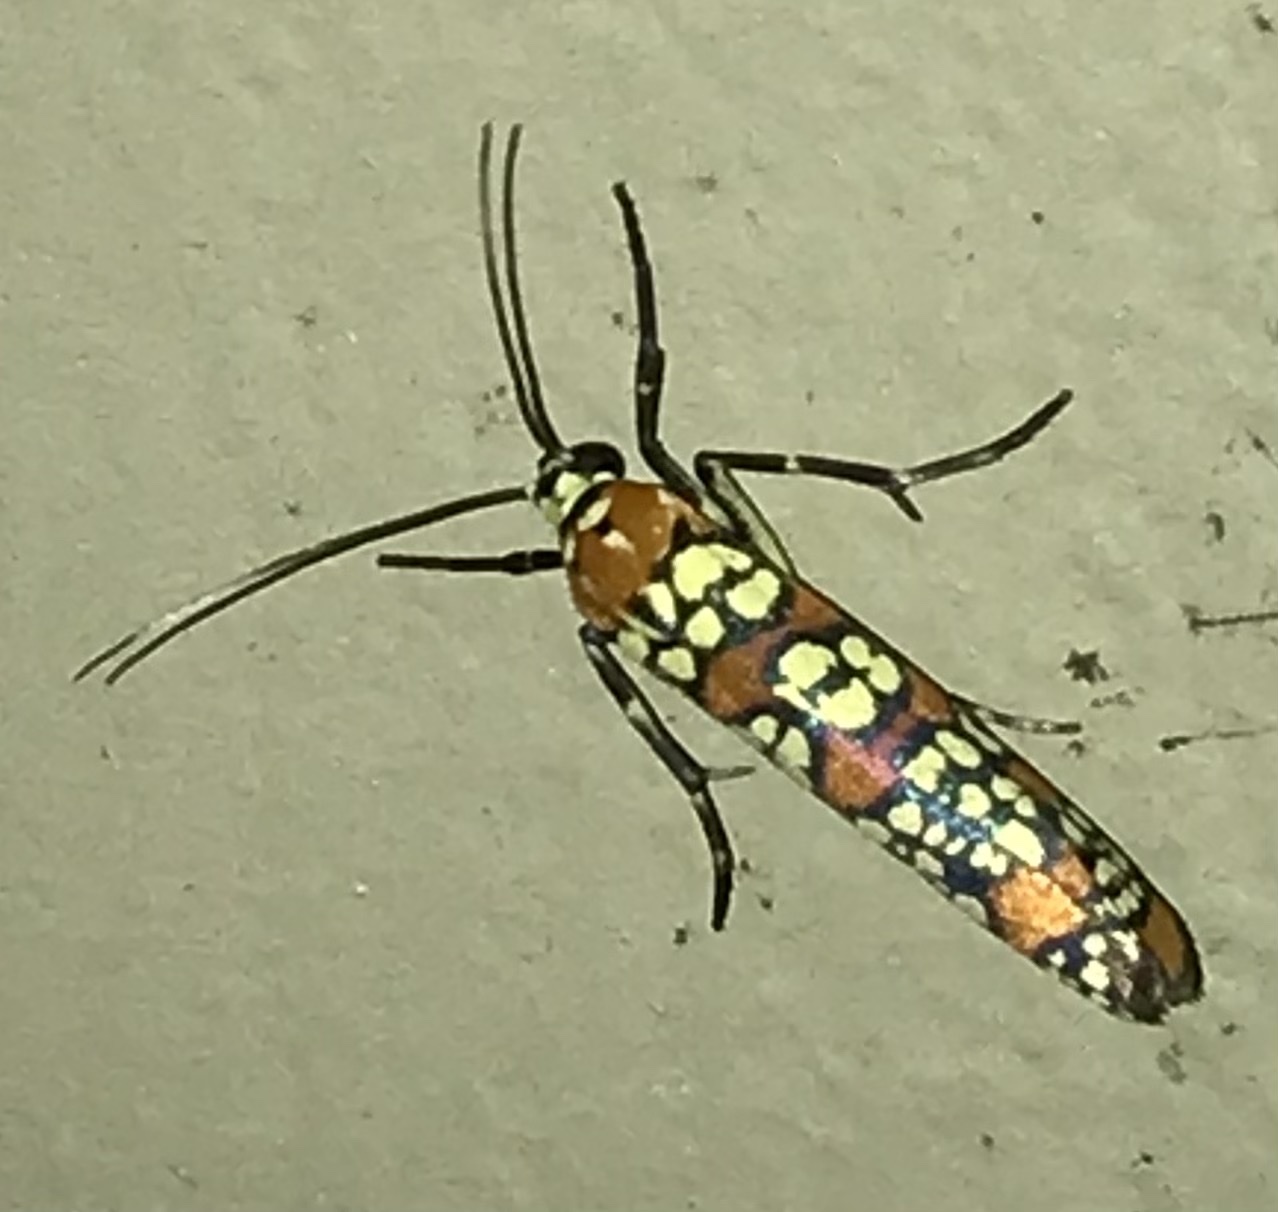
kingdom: Animalia
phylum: Arthropoda
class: Insecta
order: Lepidoptera
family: Attevidae
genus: Atteva
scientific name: Atteva punctella
